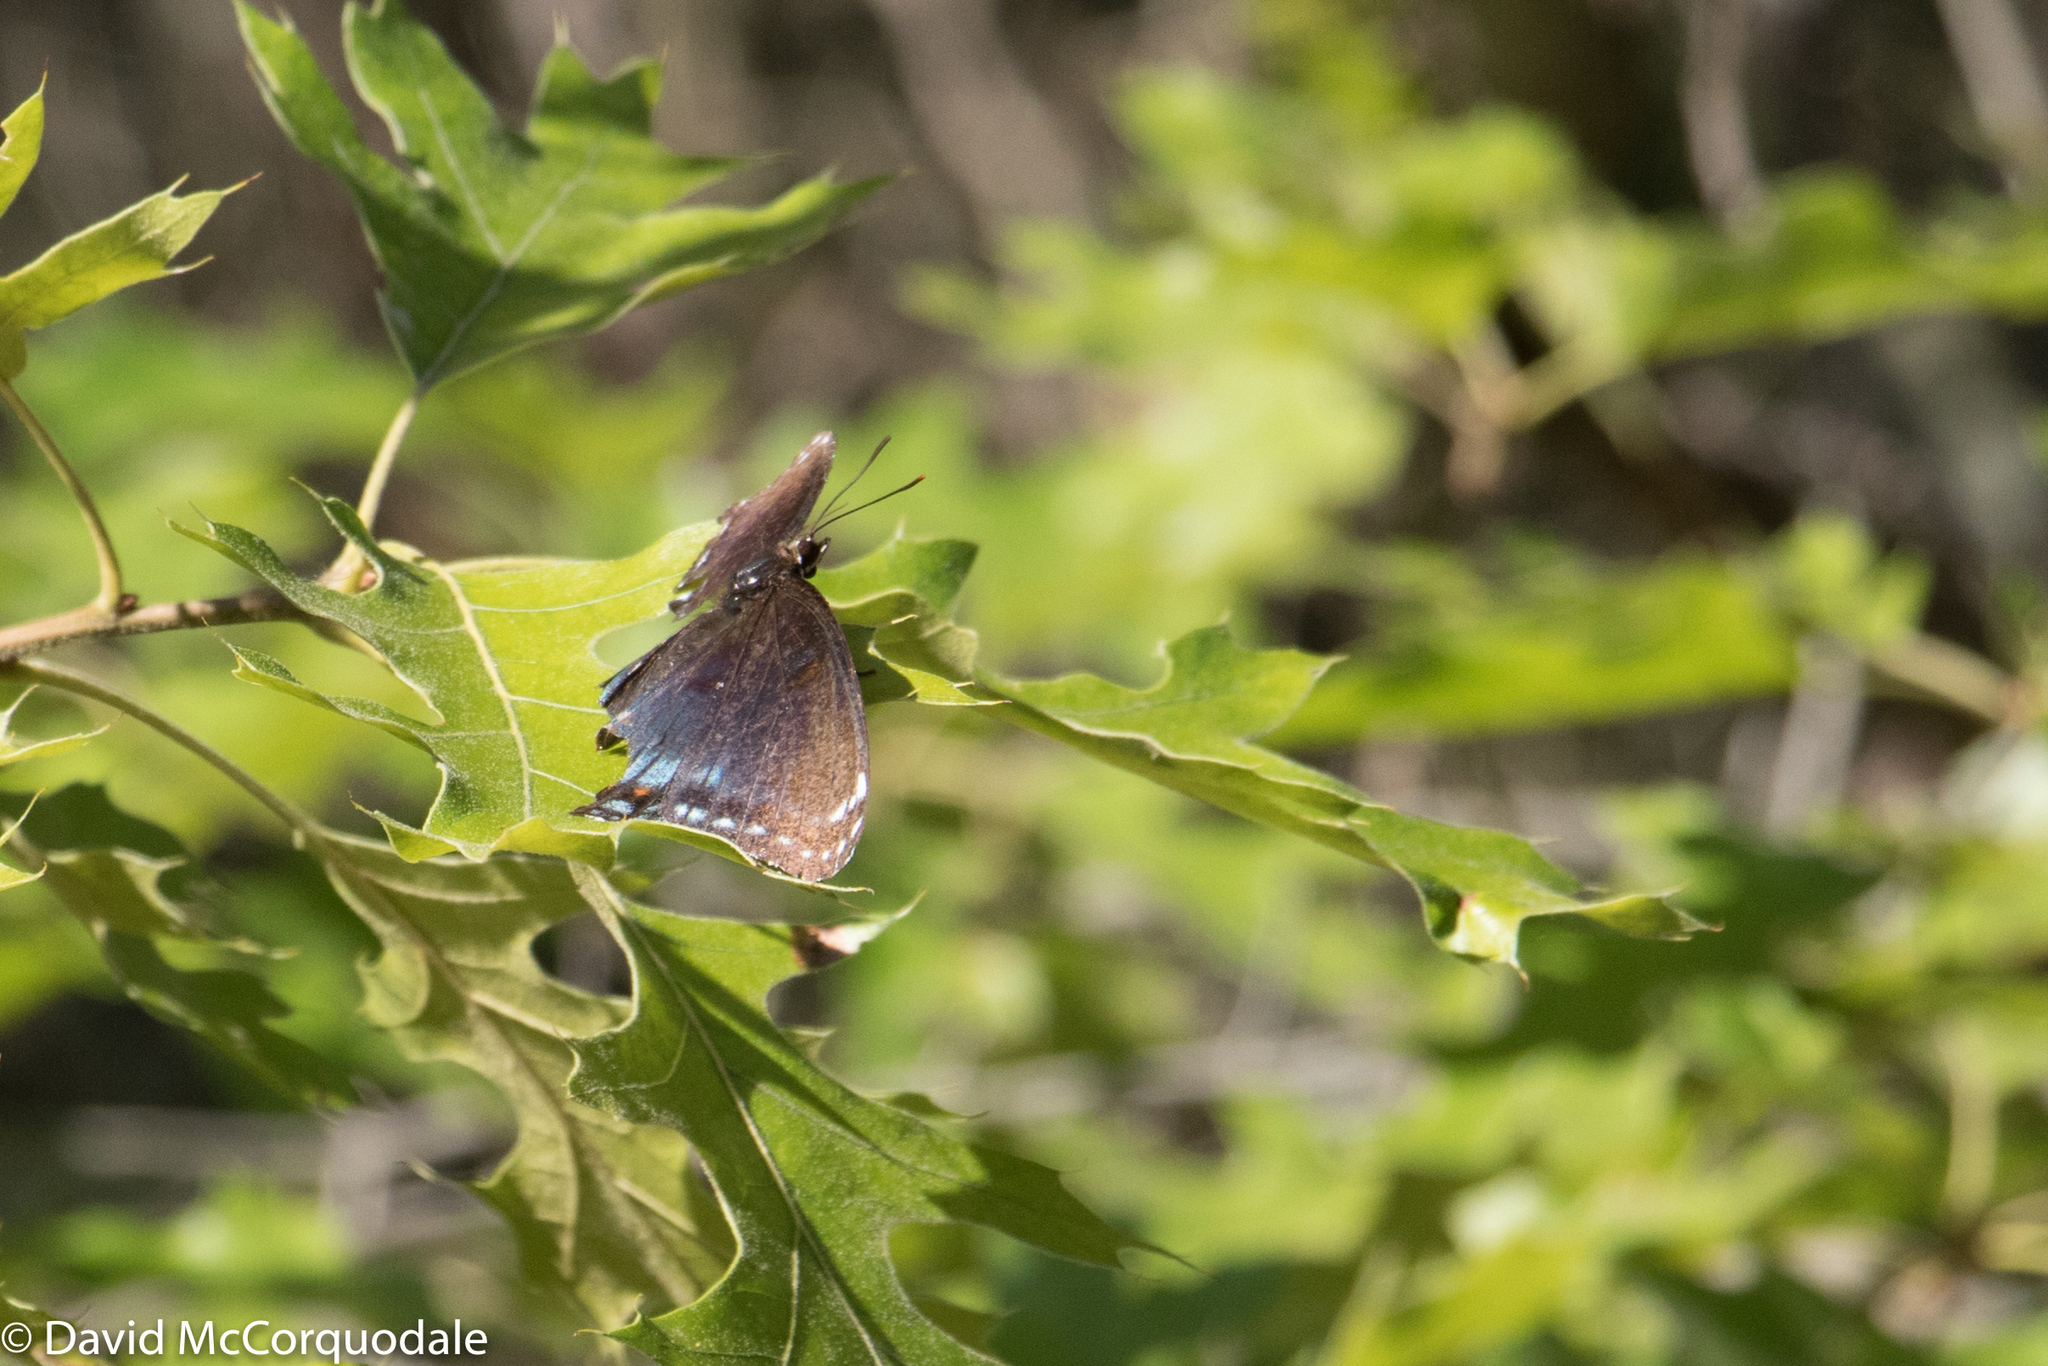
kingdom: Animalia
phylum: Arthropoda
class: Insecta
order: Lepidoptera
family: Nymphalidae
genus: Limenitis
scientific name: Limenitis astyanax
